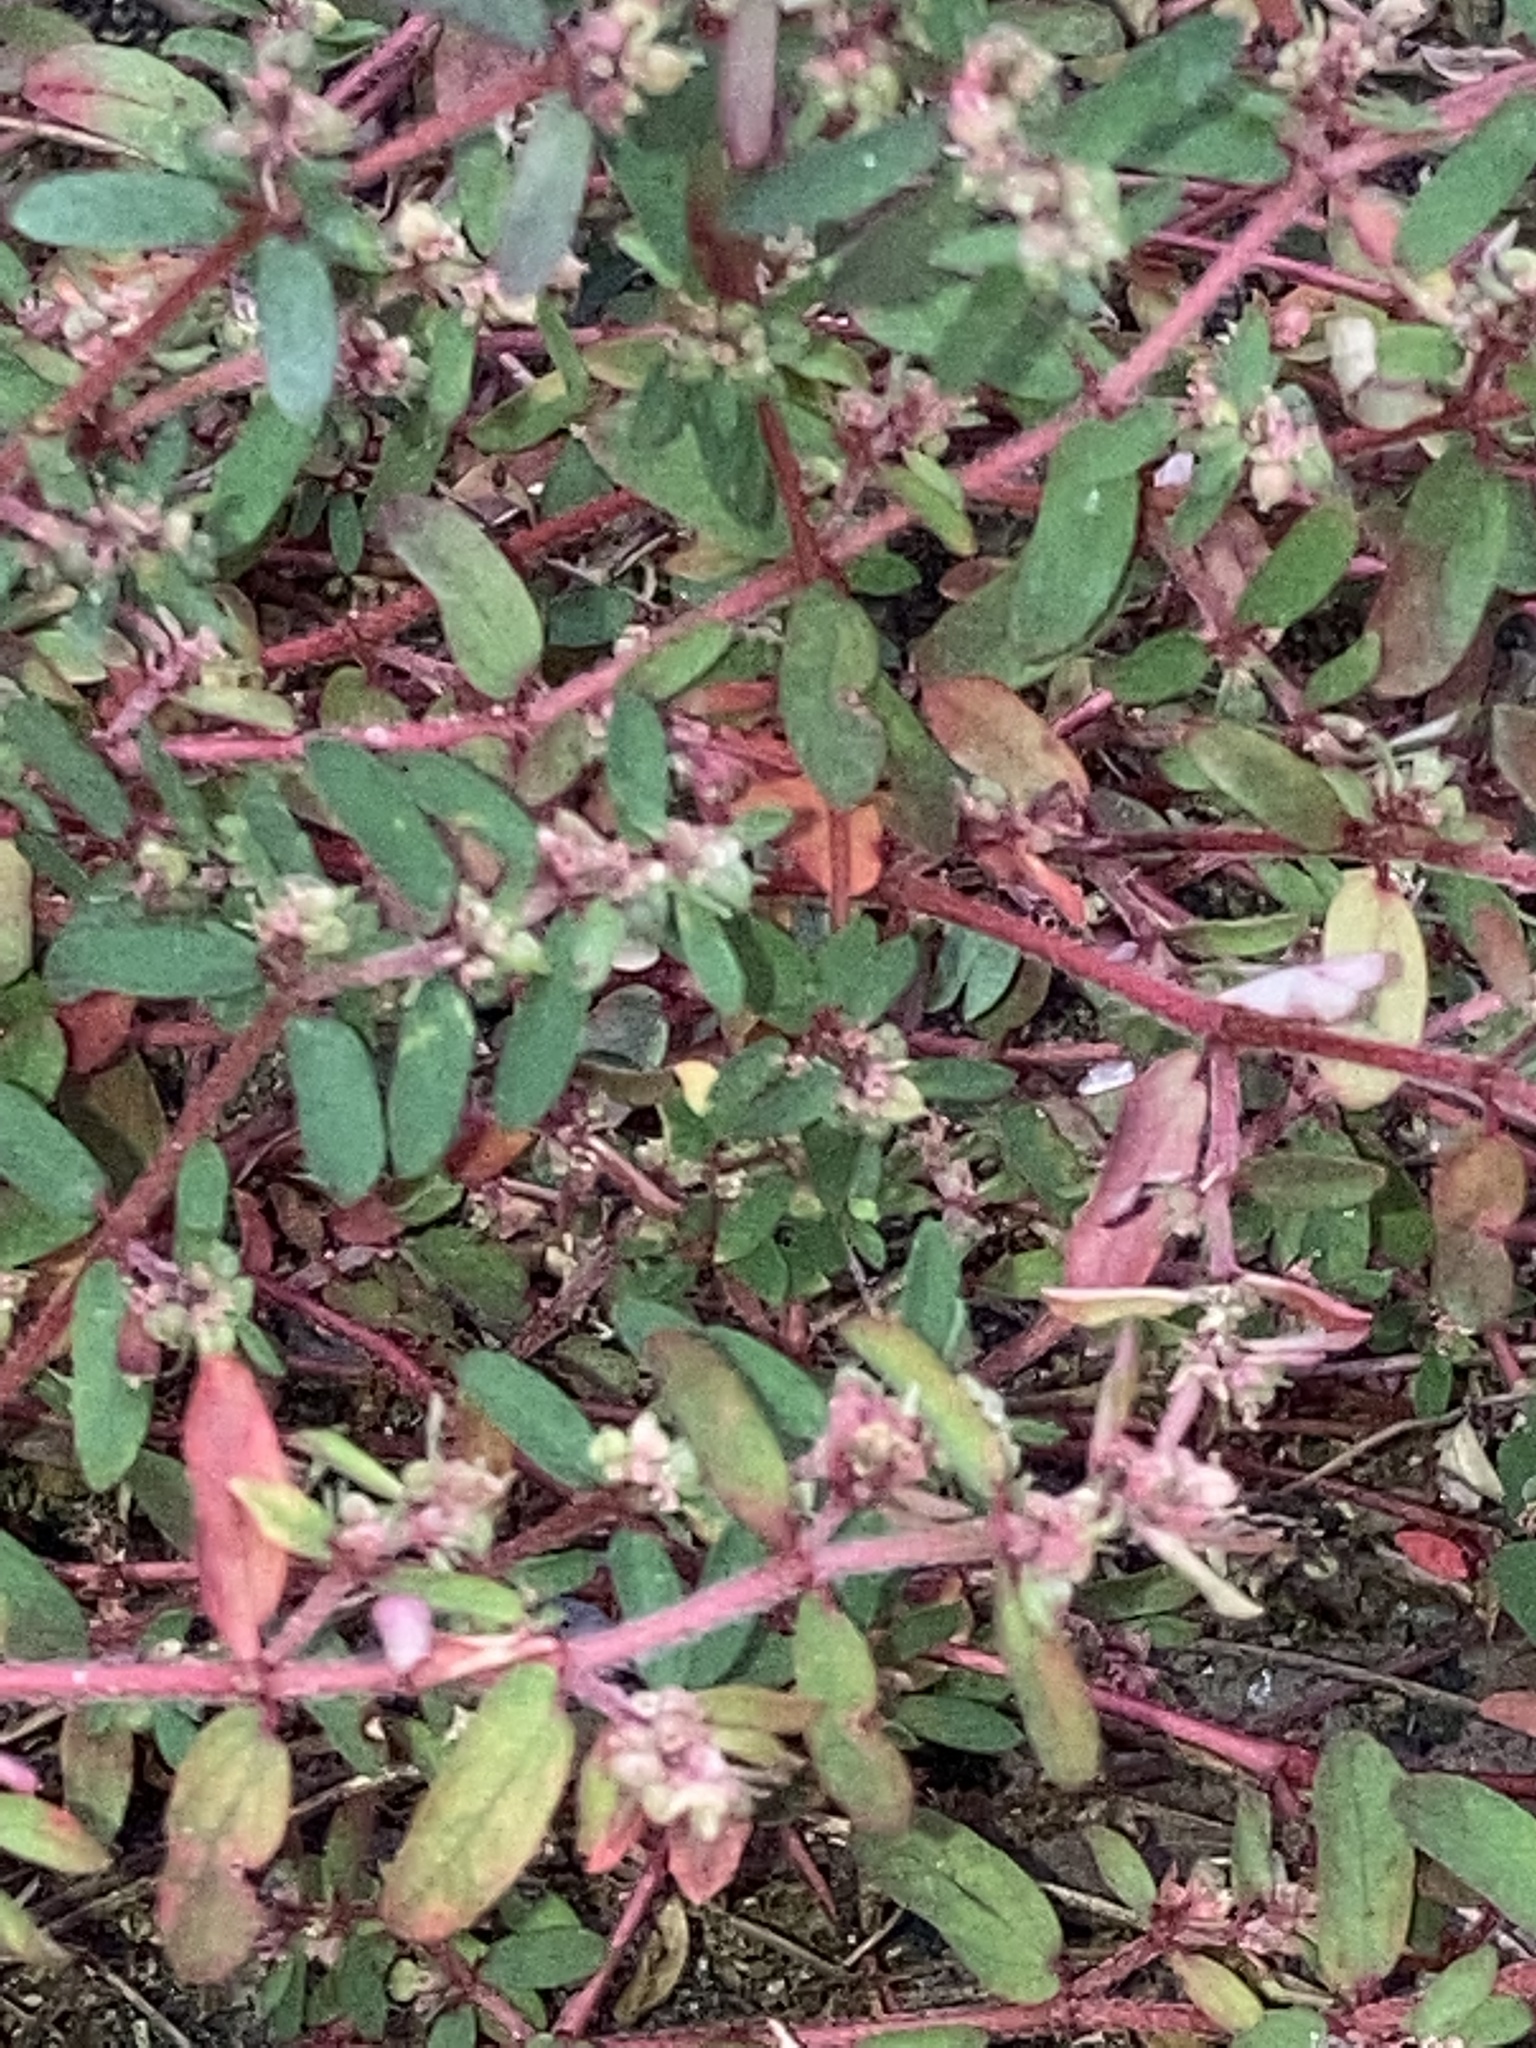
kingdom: Plantae
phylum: Tracheophyta
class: Magnoliopsida
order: Malpighiales
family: Euphorbiaceae
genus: Euphorbia
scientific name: Euphorbia maculata
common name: Spotted spurge
